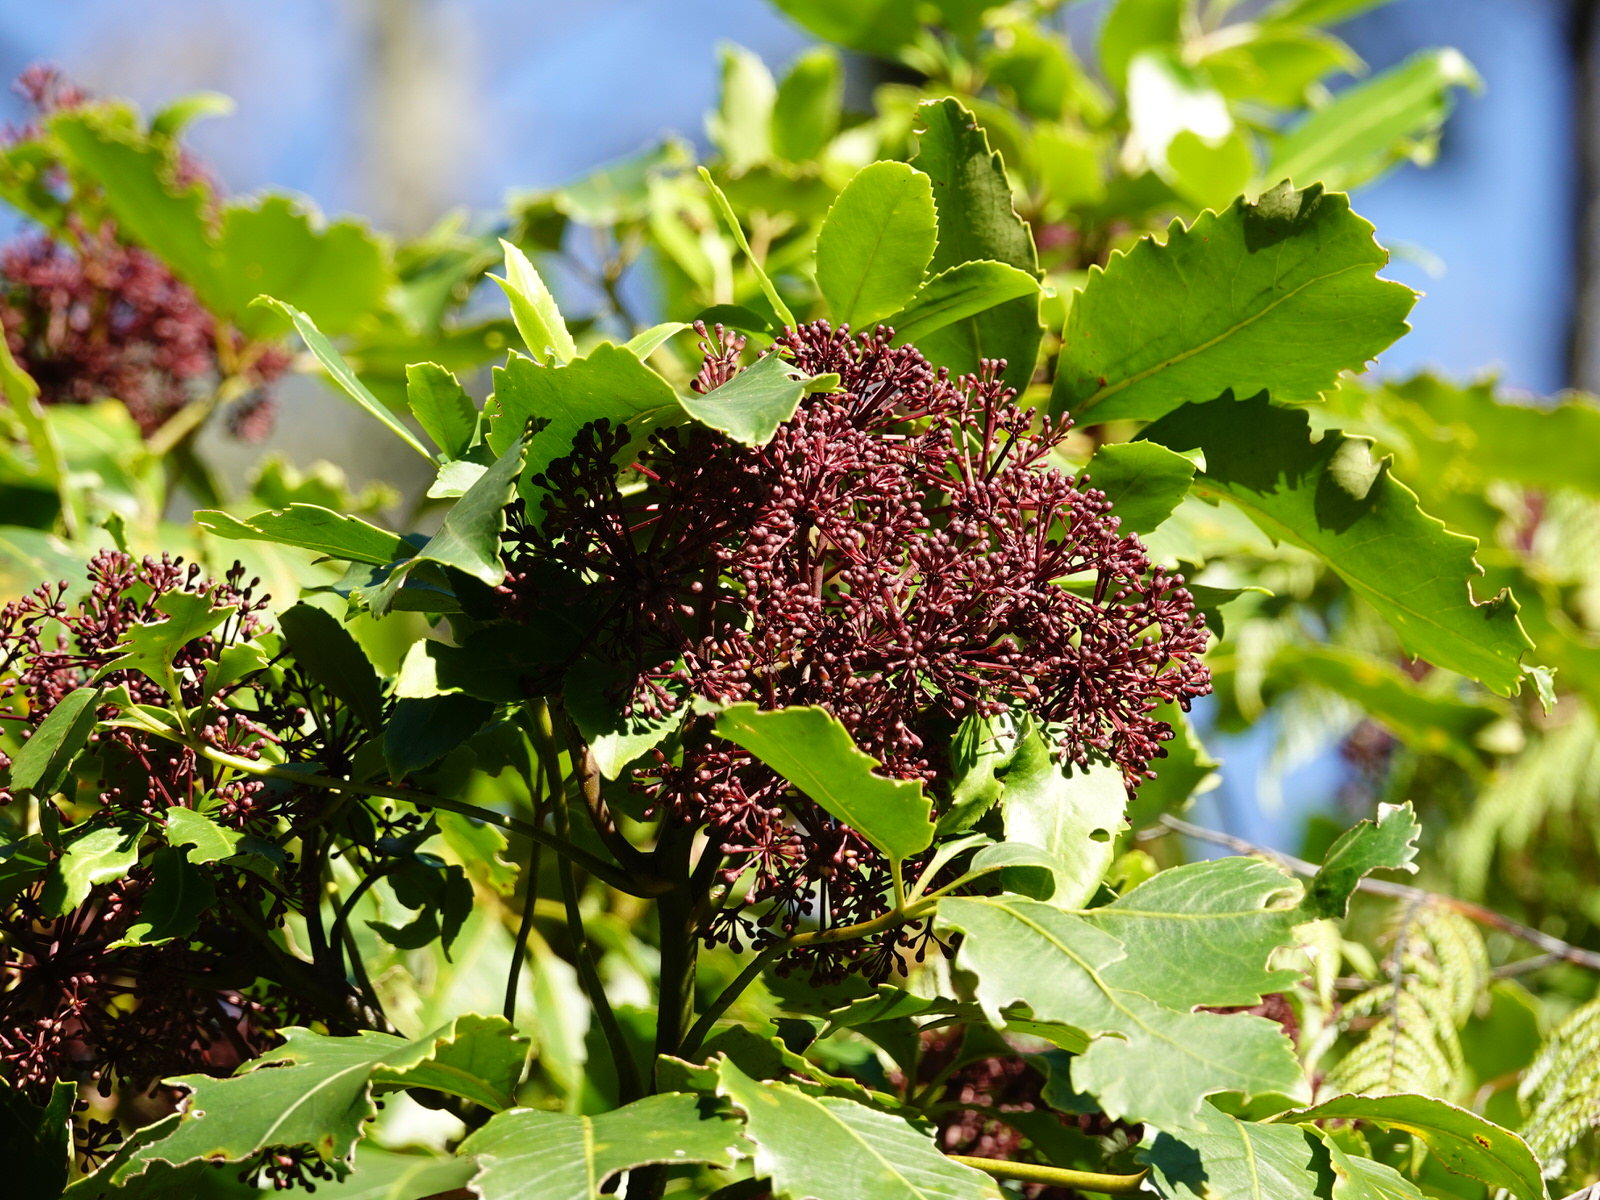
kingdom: Plantae
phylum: Tracheophyta
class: Magnoliopsida
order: Apiales
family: Araliaceae
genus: Neopanax
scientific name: Neopanax arboreus
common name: Five-fingers
